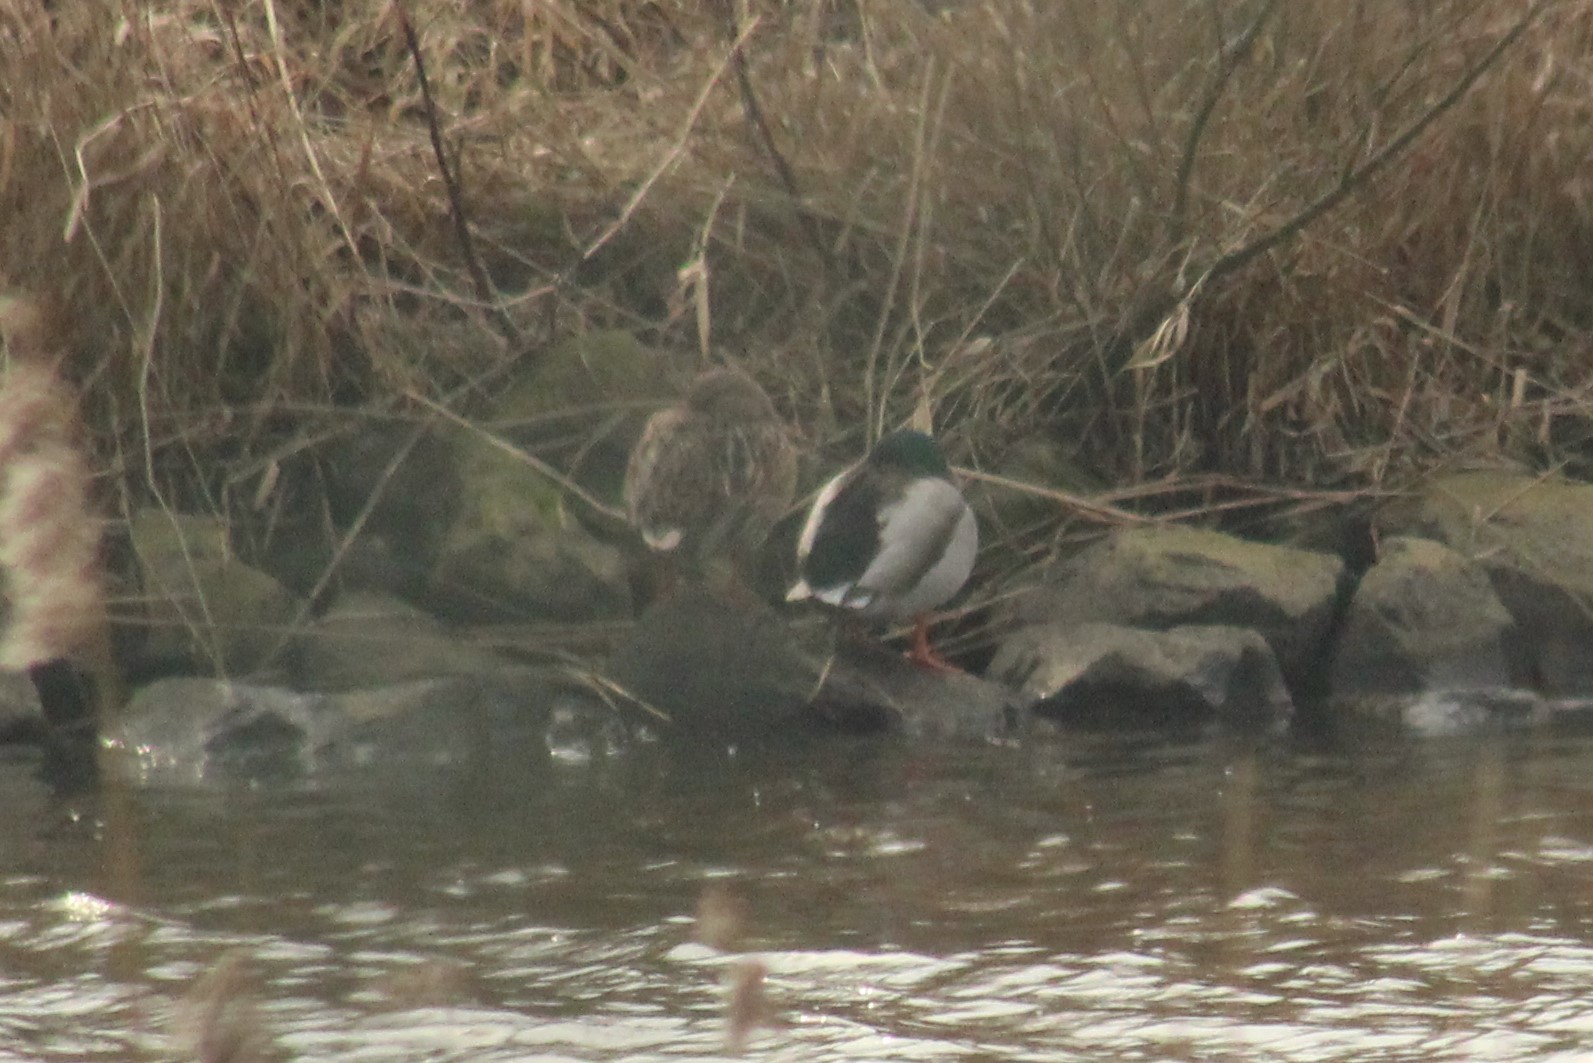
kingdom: Animalia
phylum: Chordata
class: Aves
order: Anseriformes
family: Anatidae
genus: Anas
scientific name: Anas platyrhynchos
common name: Mallard
